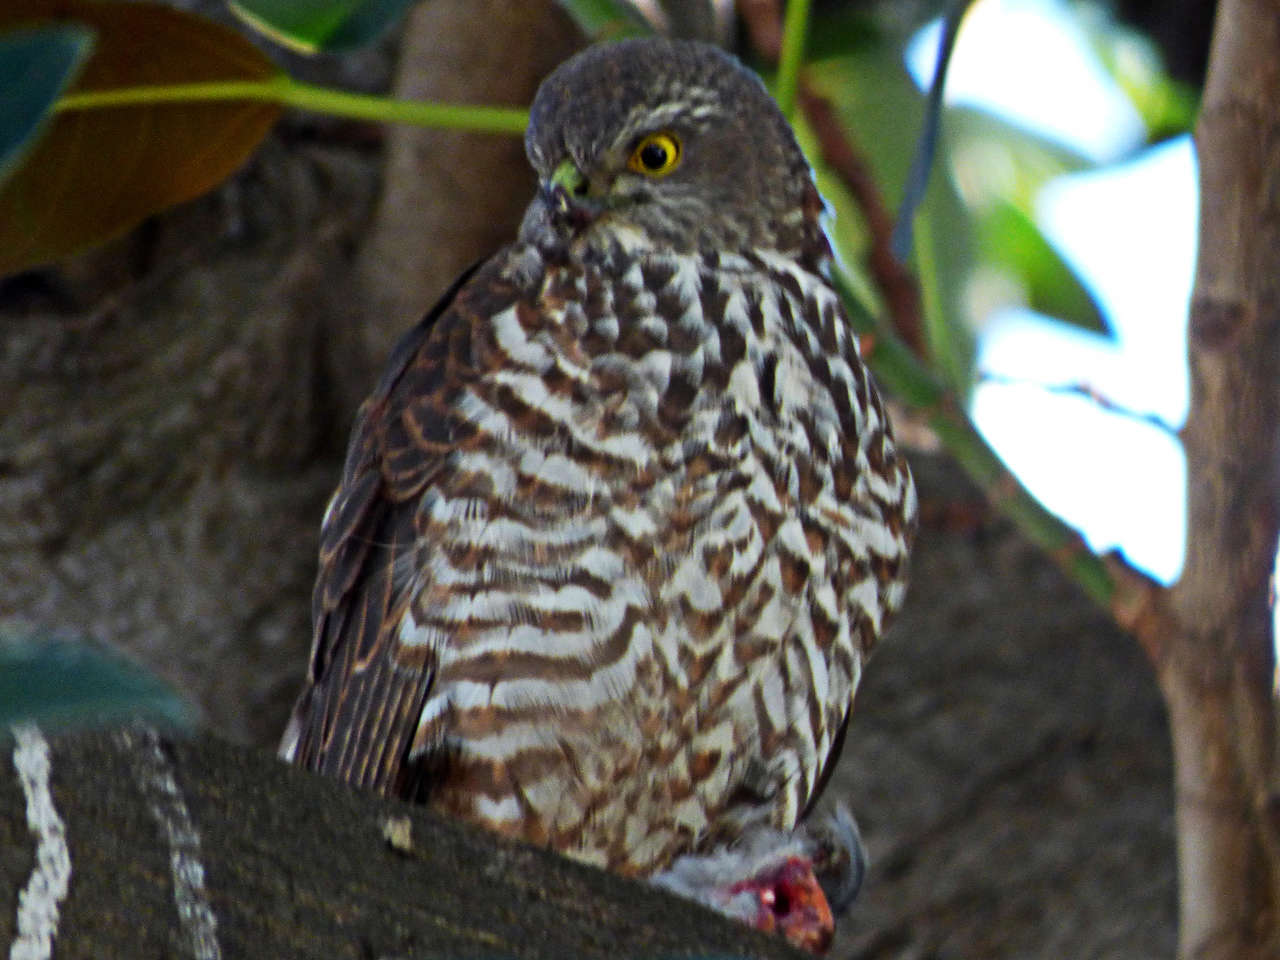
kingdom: Animalia
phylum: Chordata
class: Aves
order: Accipitriformes
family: Accipitridae
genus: Accipiter
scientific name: Accipiter fasciatus
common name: Brown goshawk
